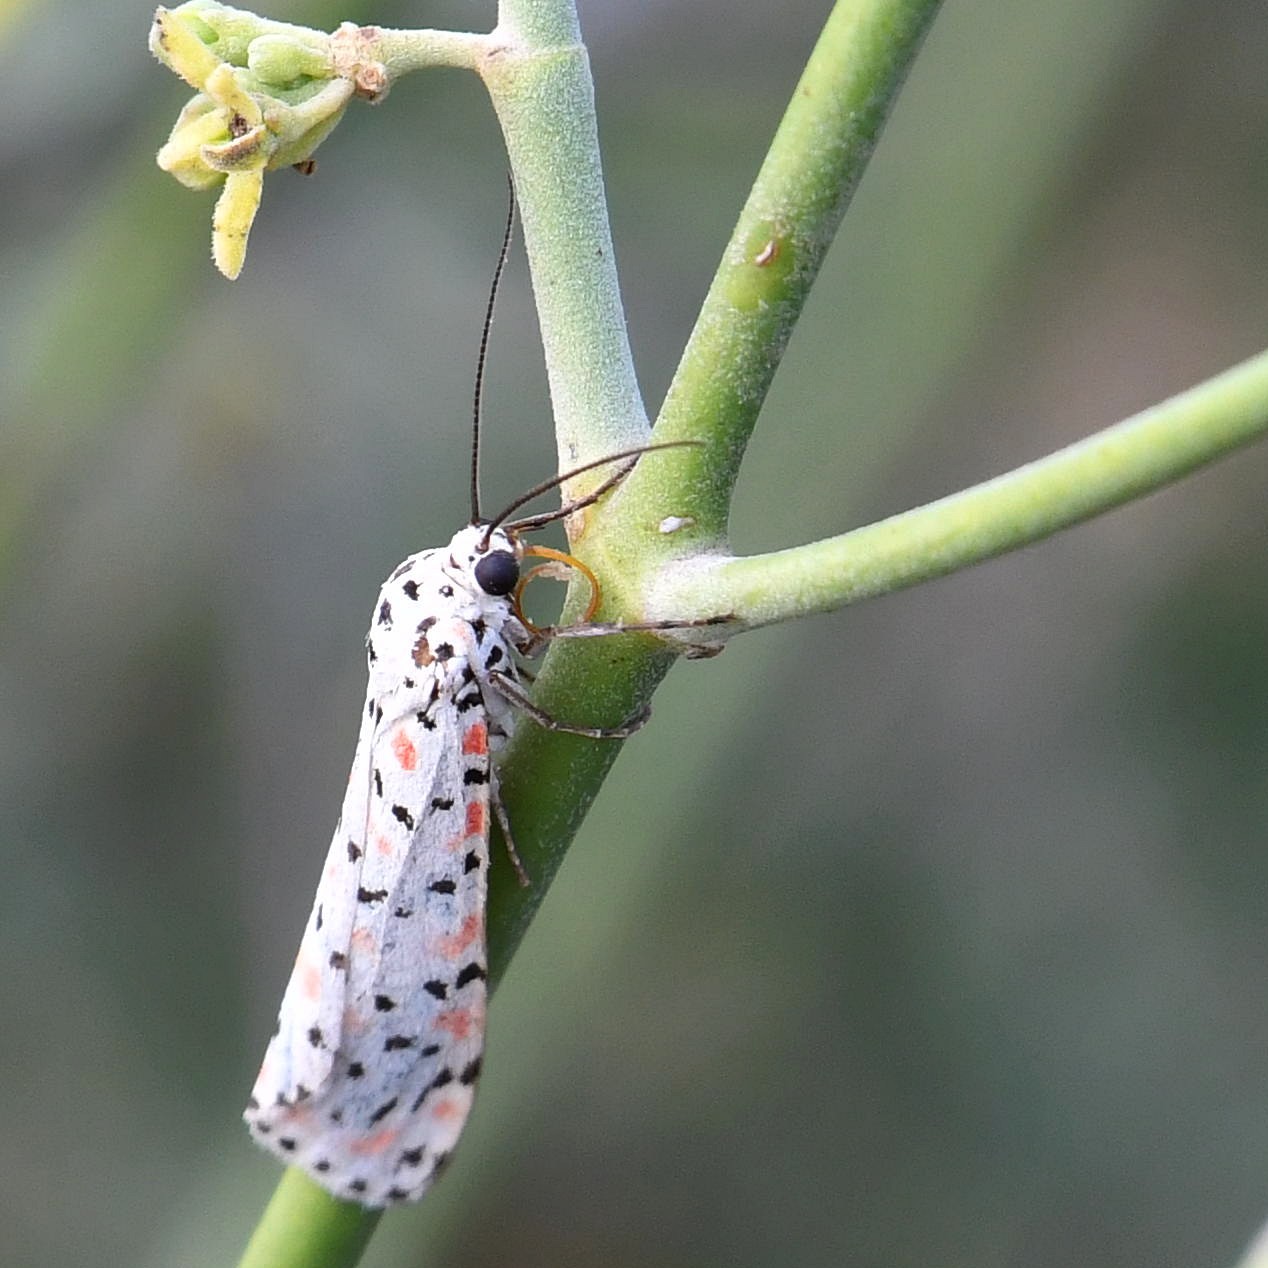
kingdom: Animalia
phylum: Arthropoda
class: Insecta
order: Lepidoptera
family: Erebidae
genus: Utetheisa
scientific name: Utetheisa pulchelloides
